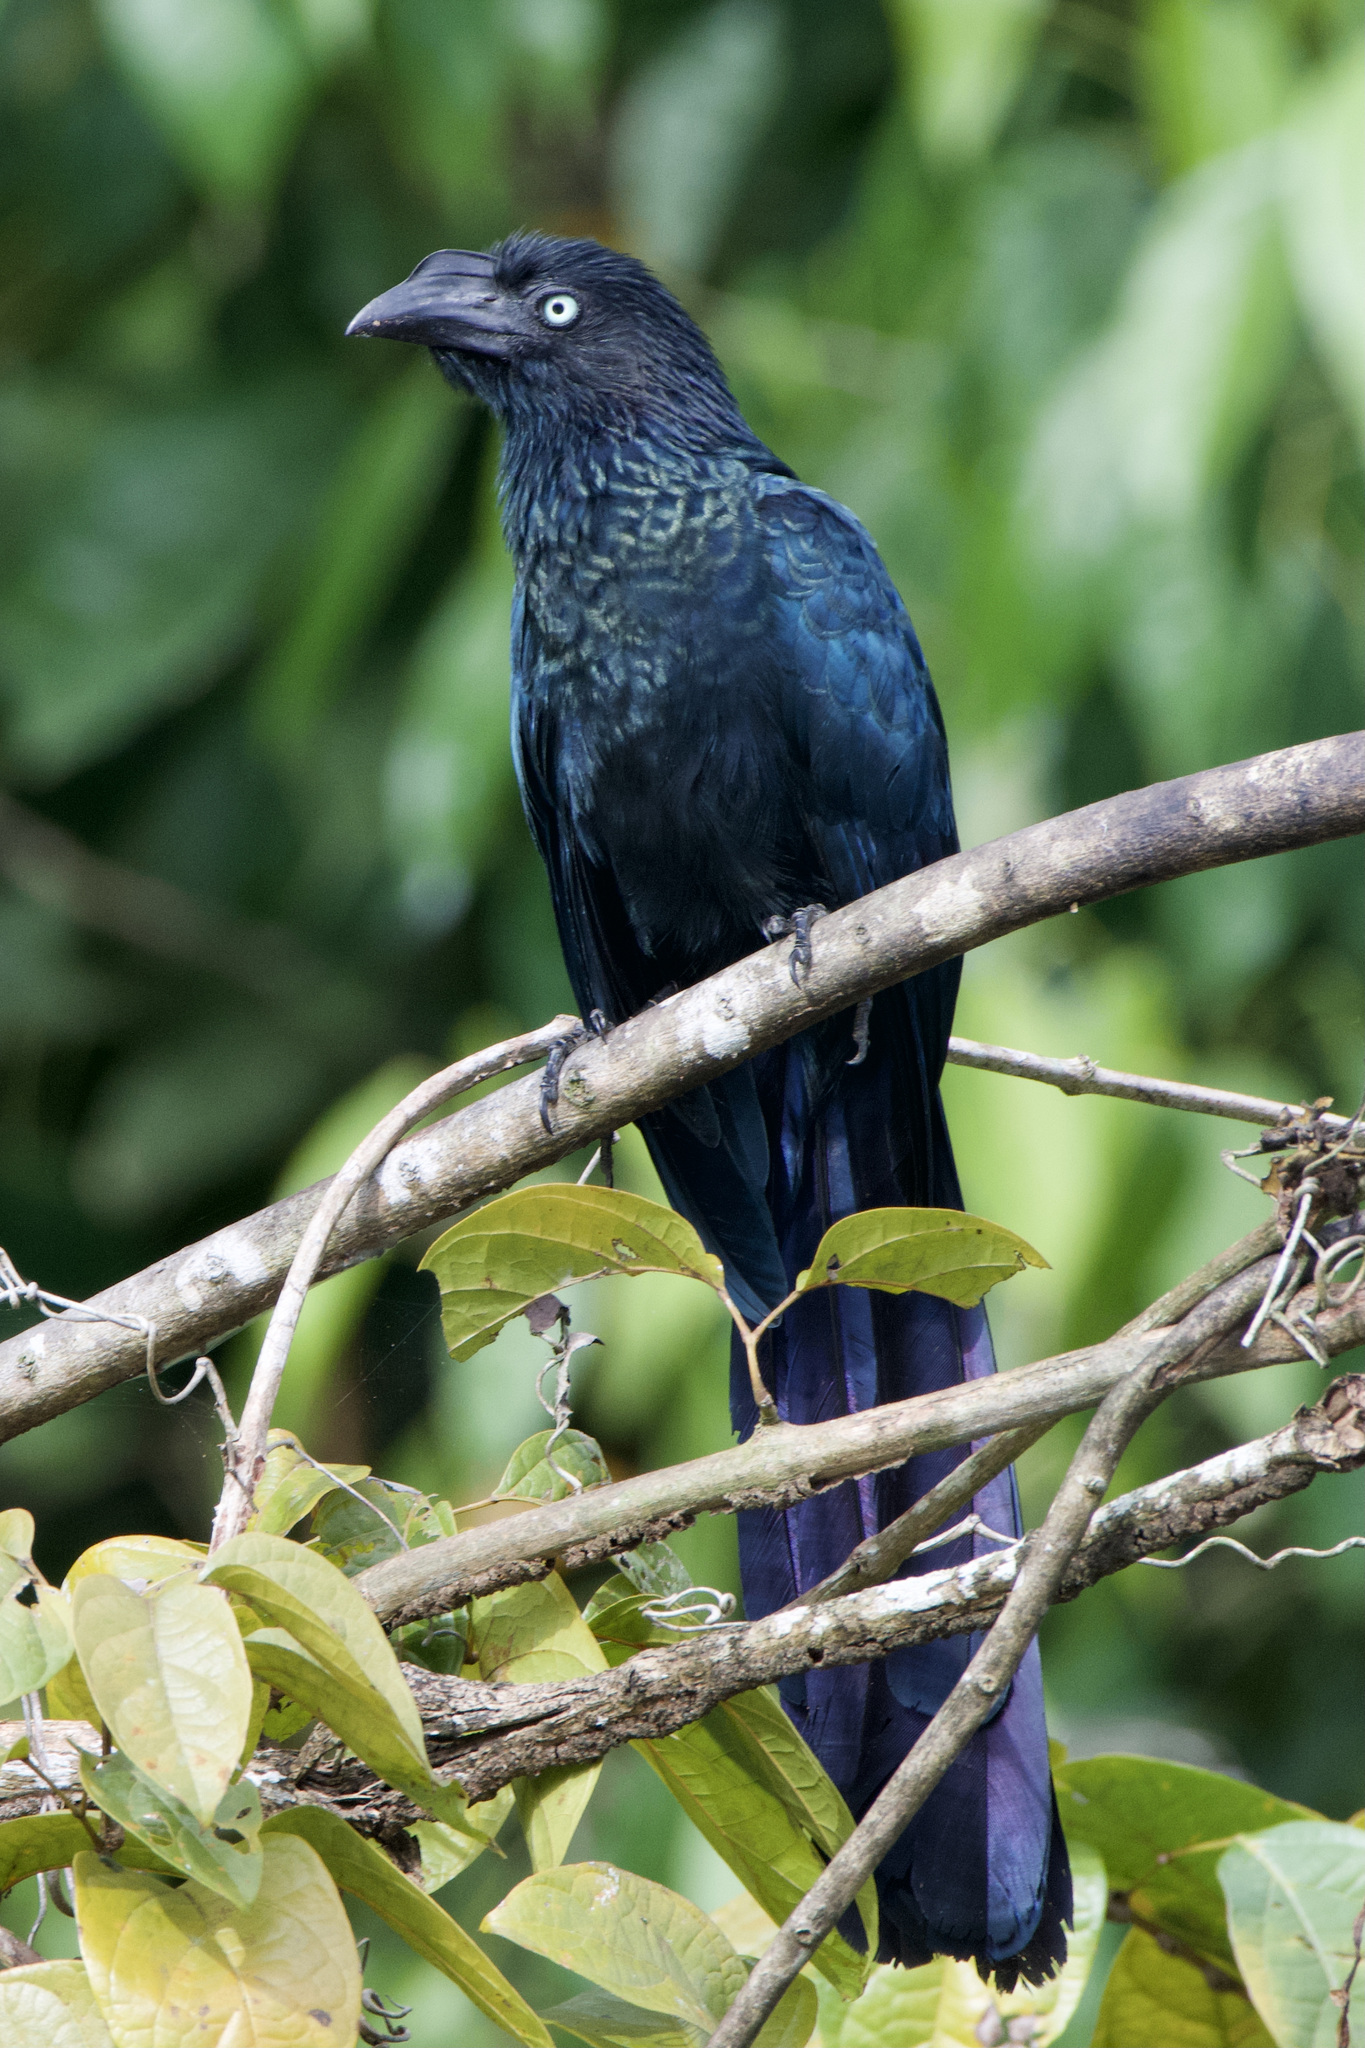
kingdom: Animalia
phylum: Chordata
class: Aves
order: Cuculiformes
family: Cuculidae
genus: Crotophaga
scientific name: Crotophaga major
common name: Greater ani
